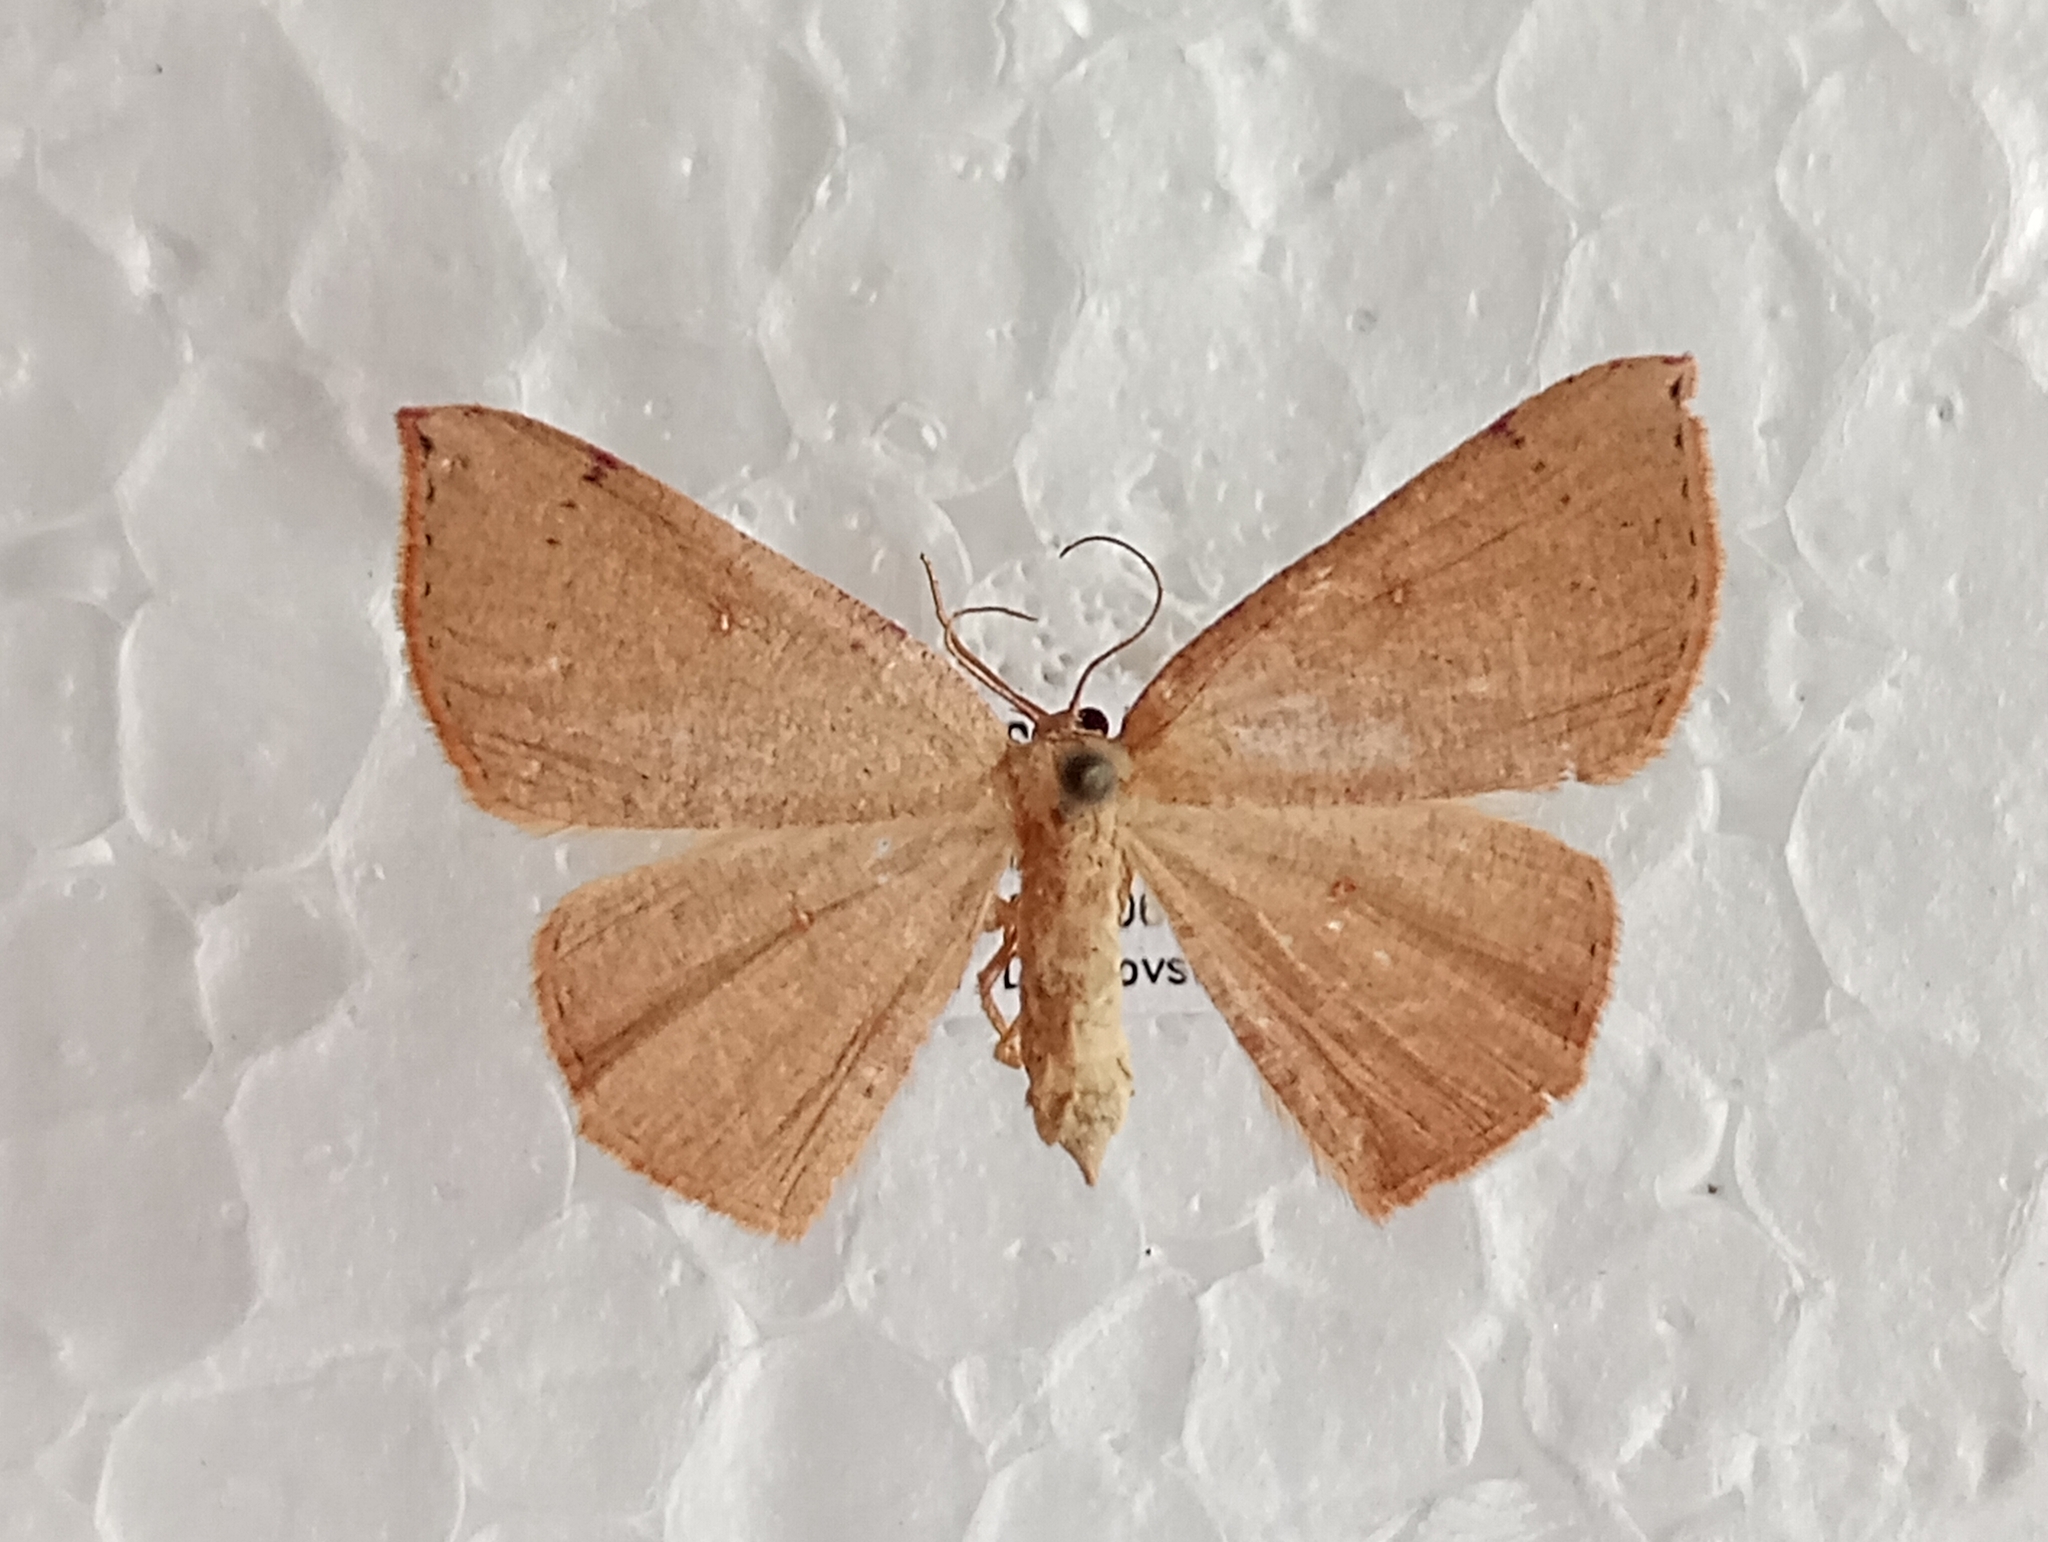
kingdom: Animalia
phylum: Arthropoda
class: Insecta
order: Lepidoptera
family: Geometridae
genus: Cyclophora
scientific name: Cyclophora puppillaria
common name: Blair's mocha
